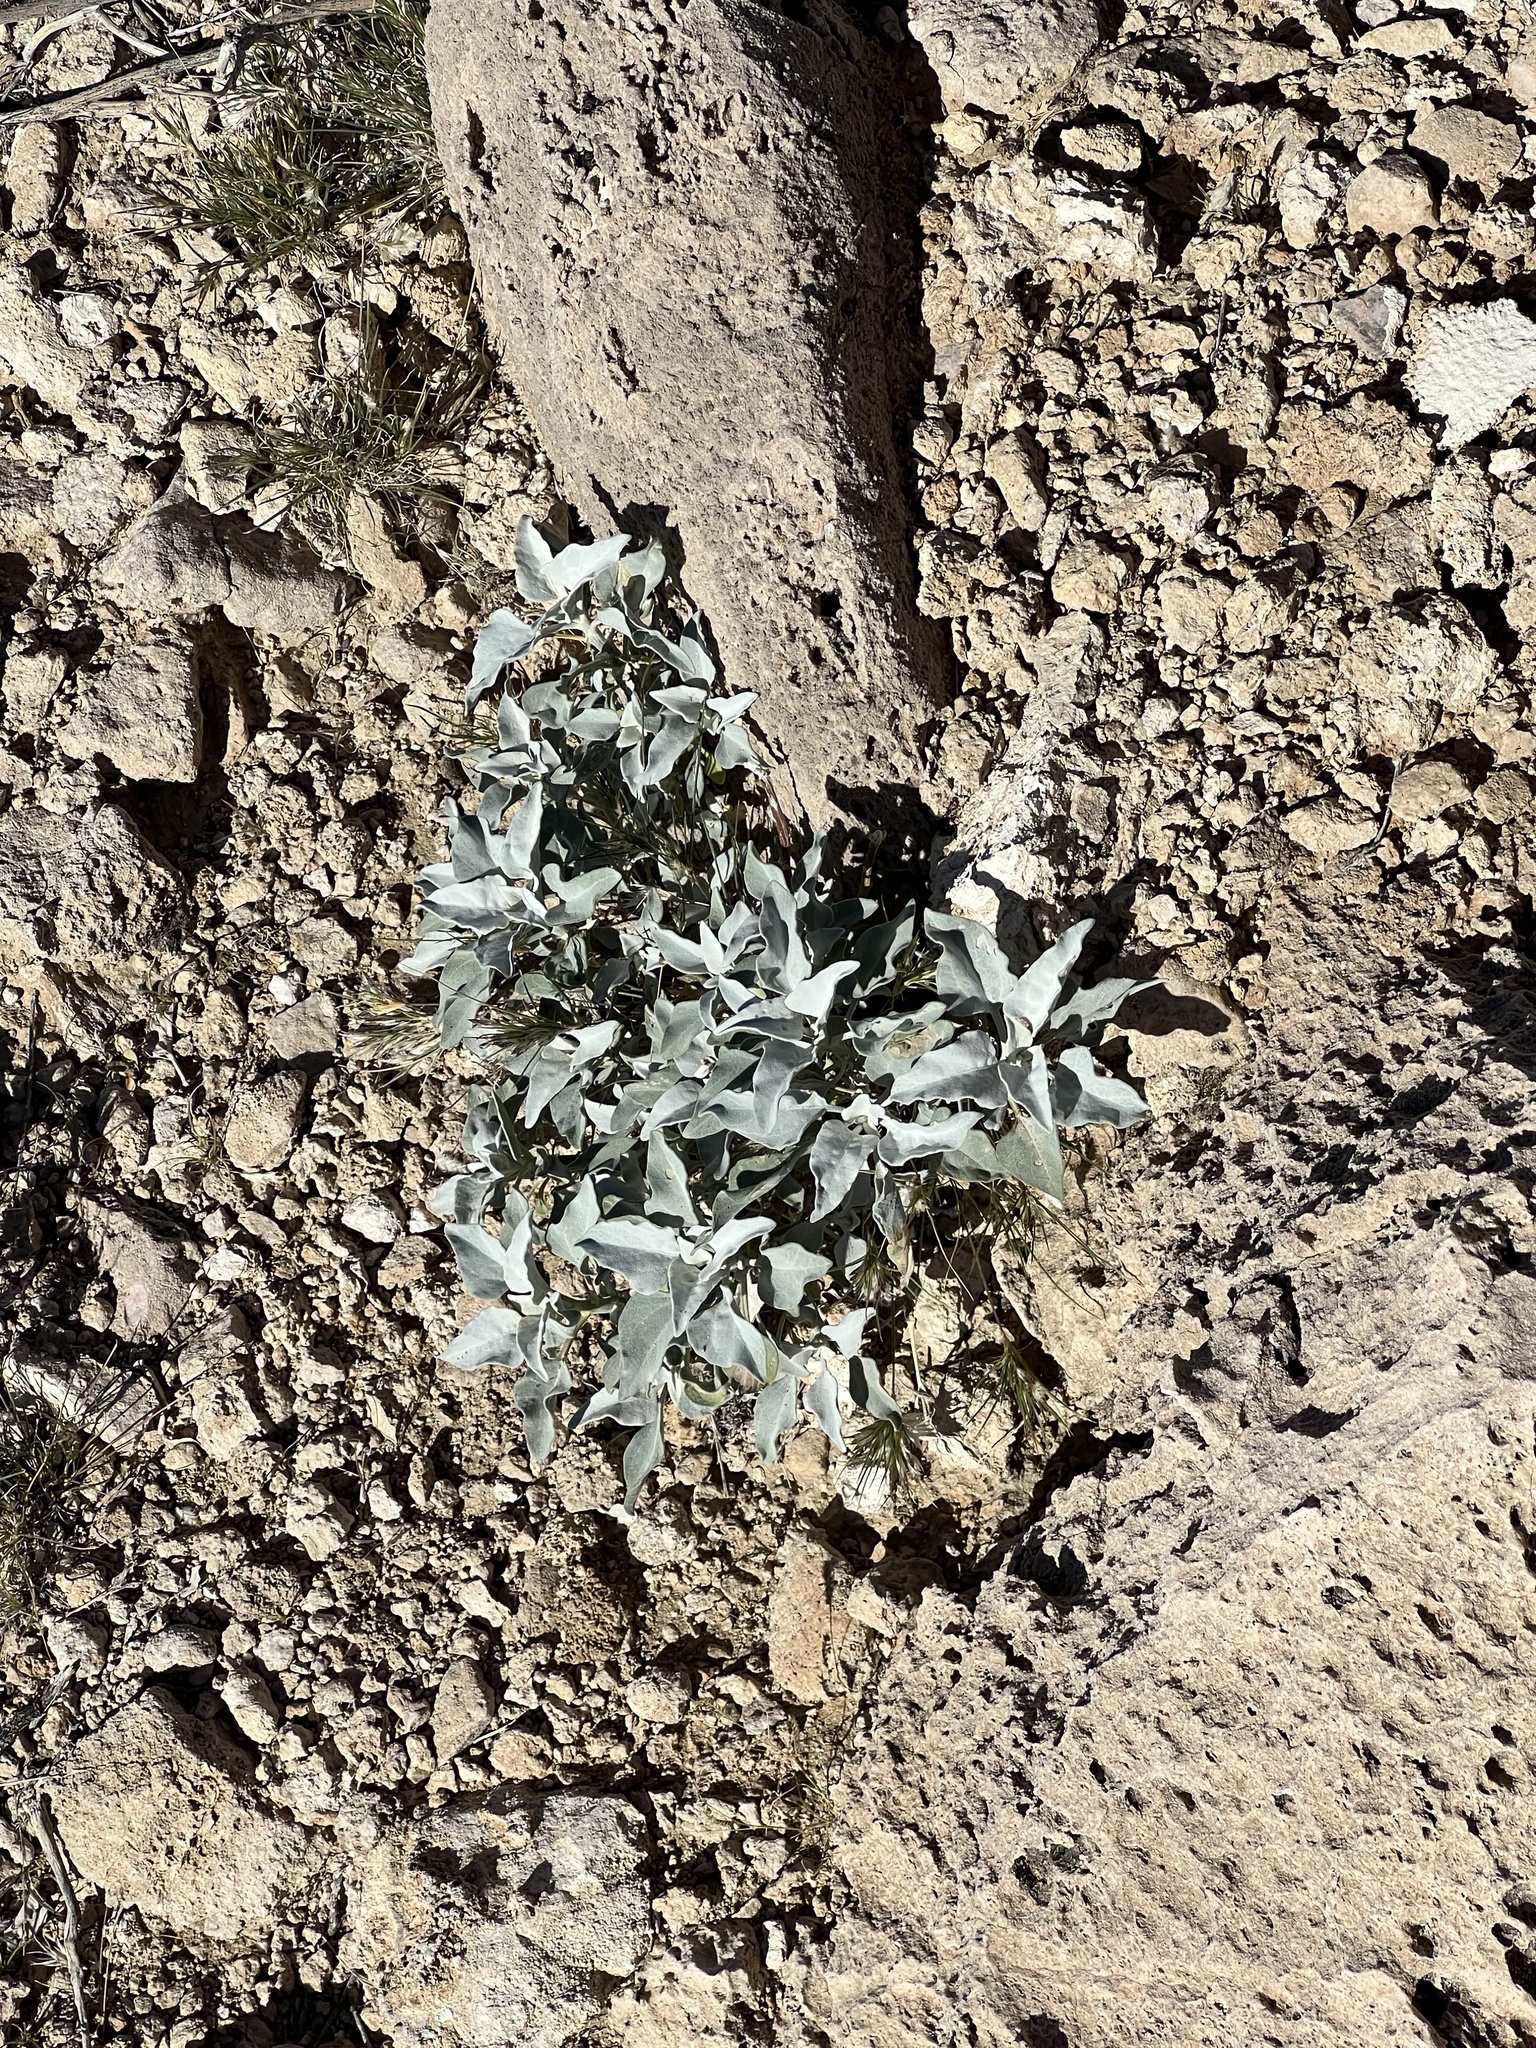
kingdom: Plantae
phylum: Tracheophyta
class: Magnoliopsida
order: Asterales
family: Asteraceae
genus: Encelia
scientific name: Encelia farinosa
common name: Brittlebush
